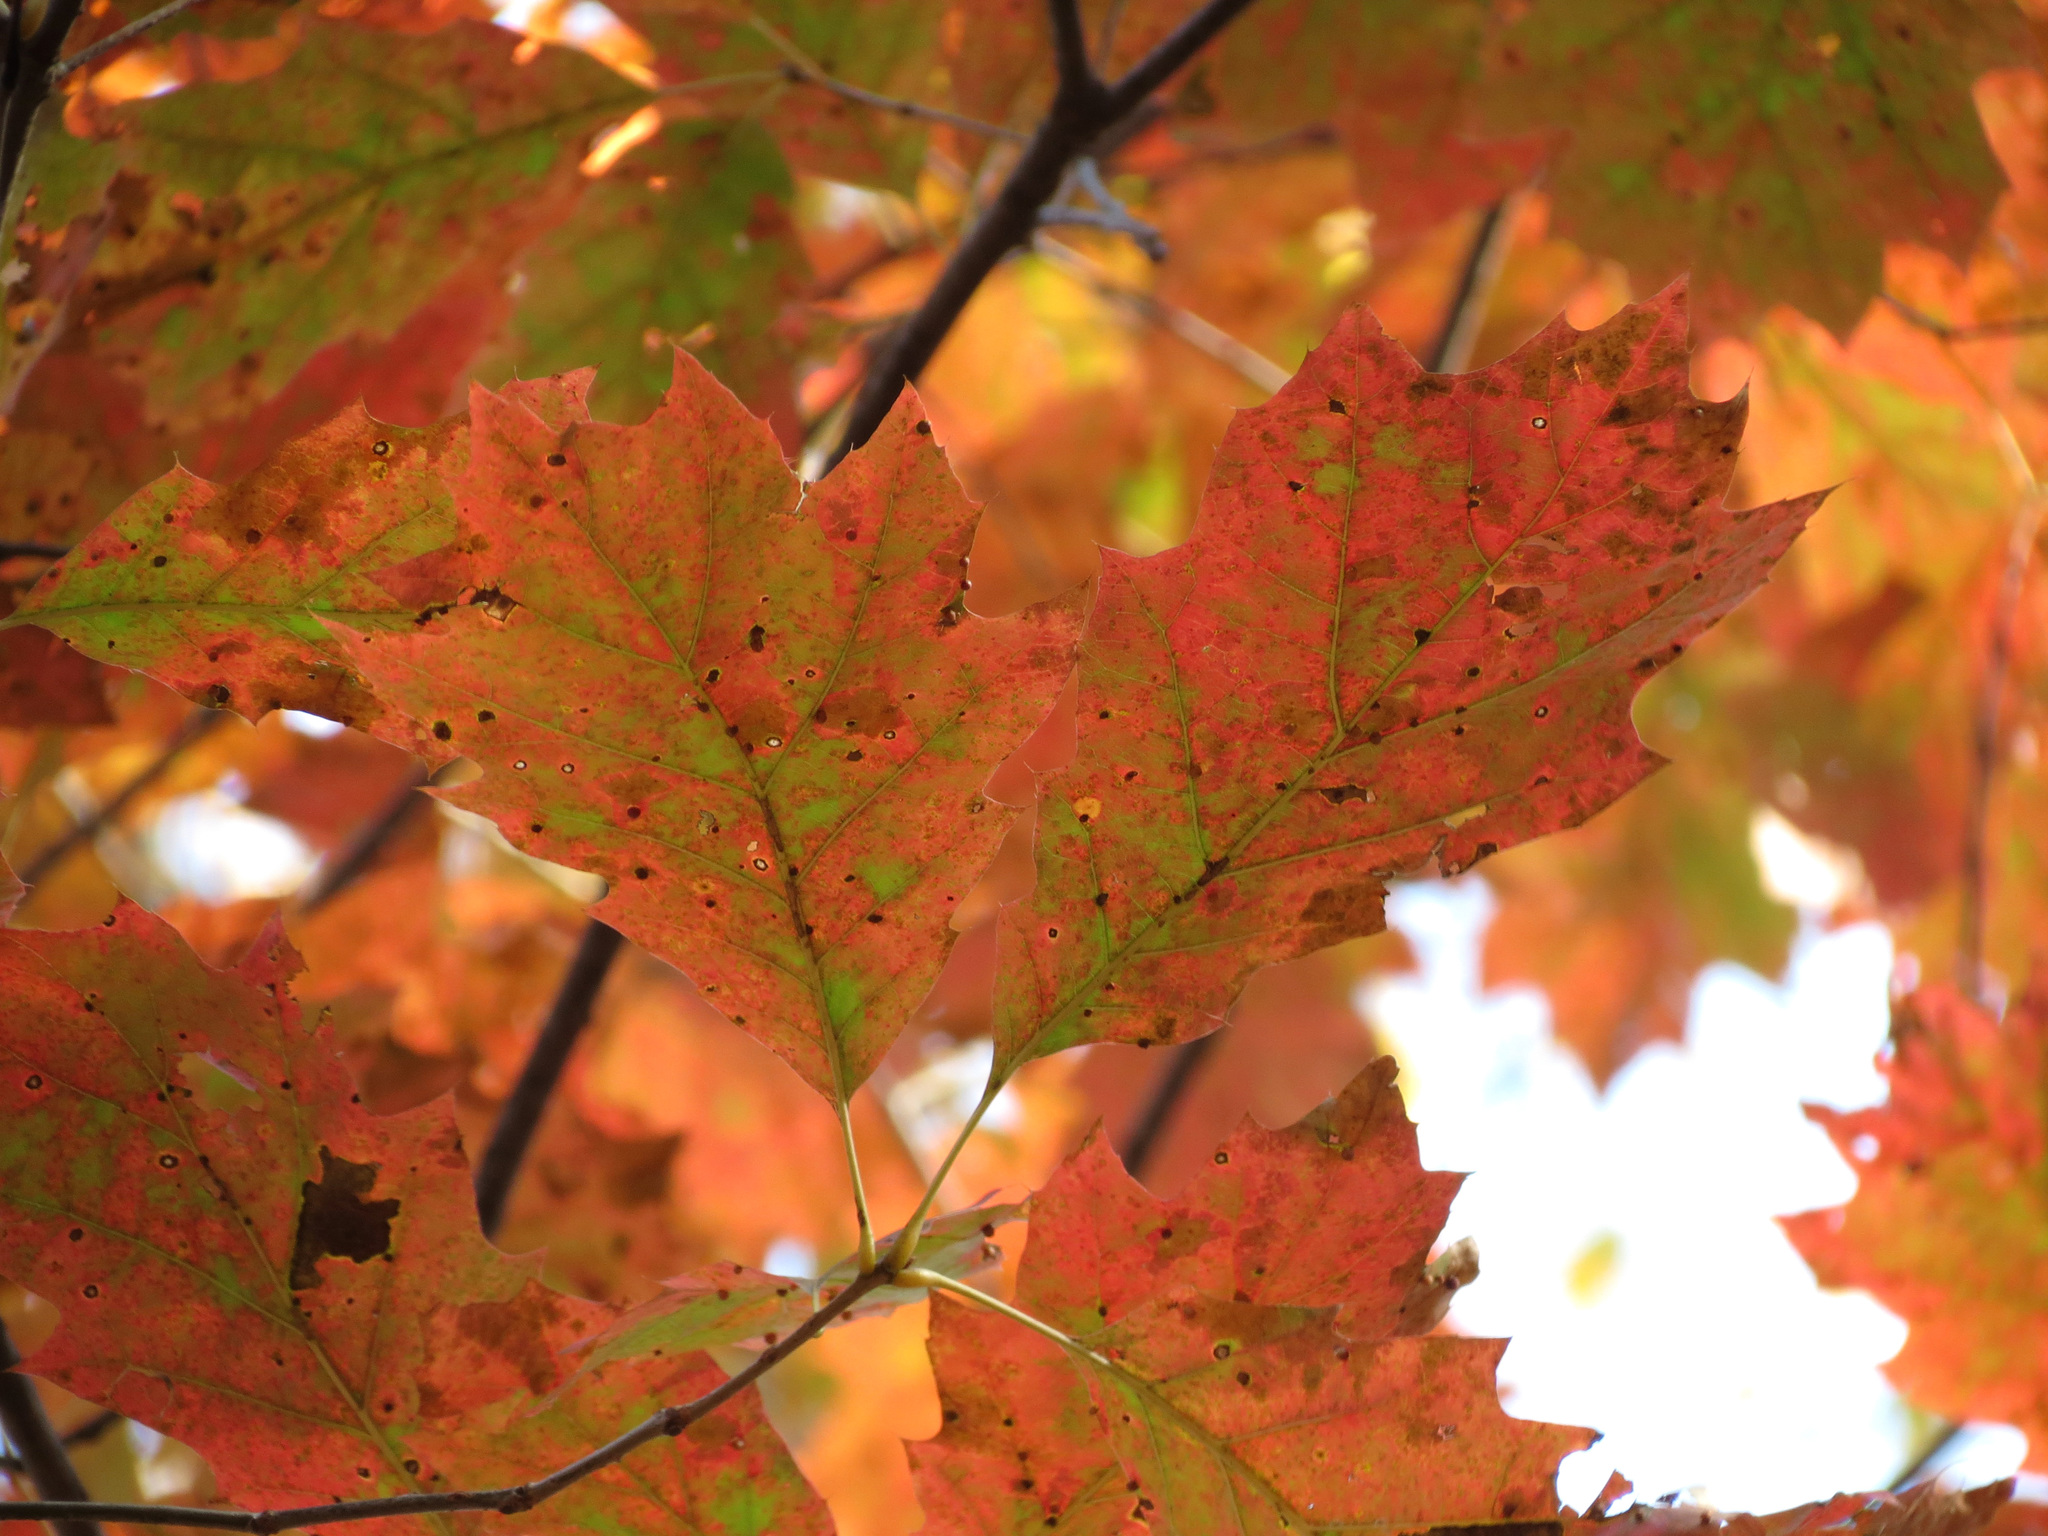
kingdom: Plantae
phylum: Tracheophyta
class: Magnoliopsida
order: Fagales
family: Fagaceae
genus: Quercus
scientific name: Quercus rubra
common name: Red oak
